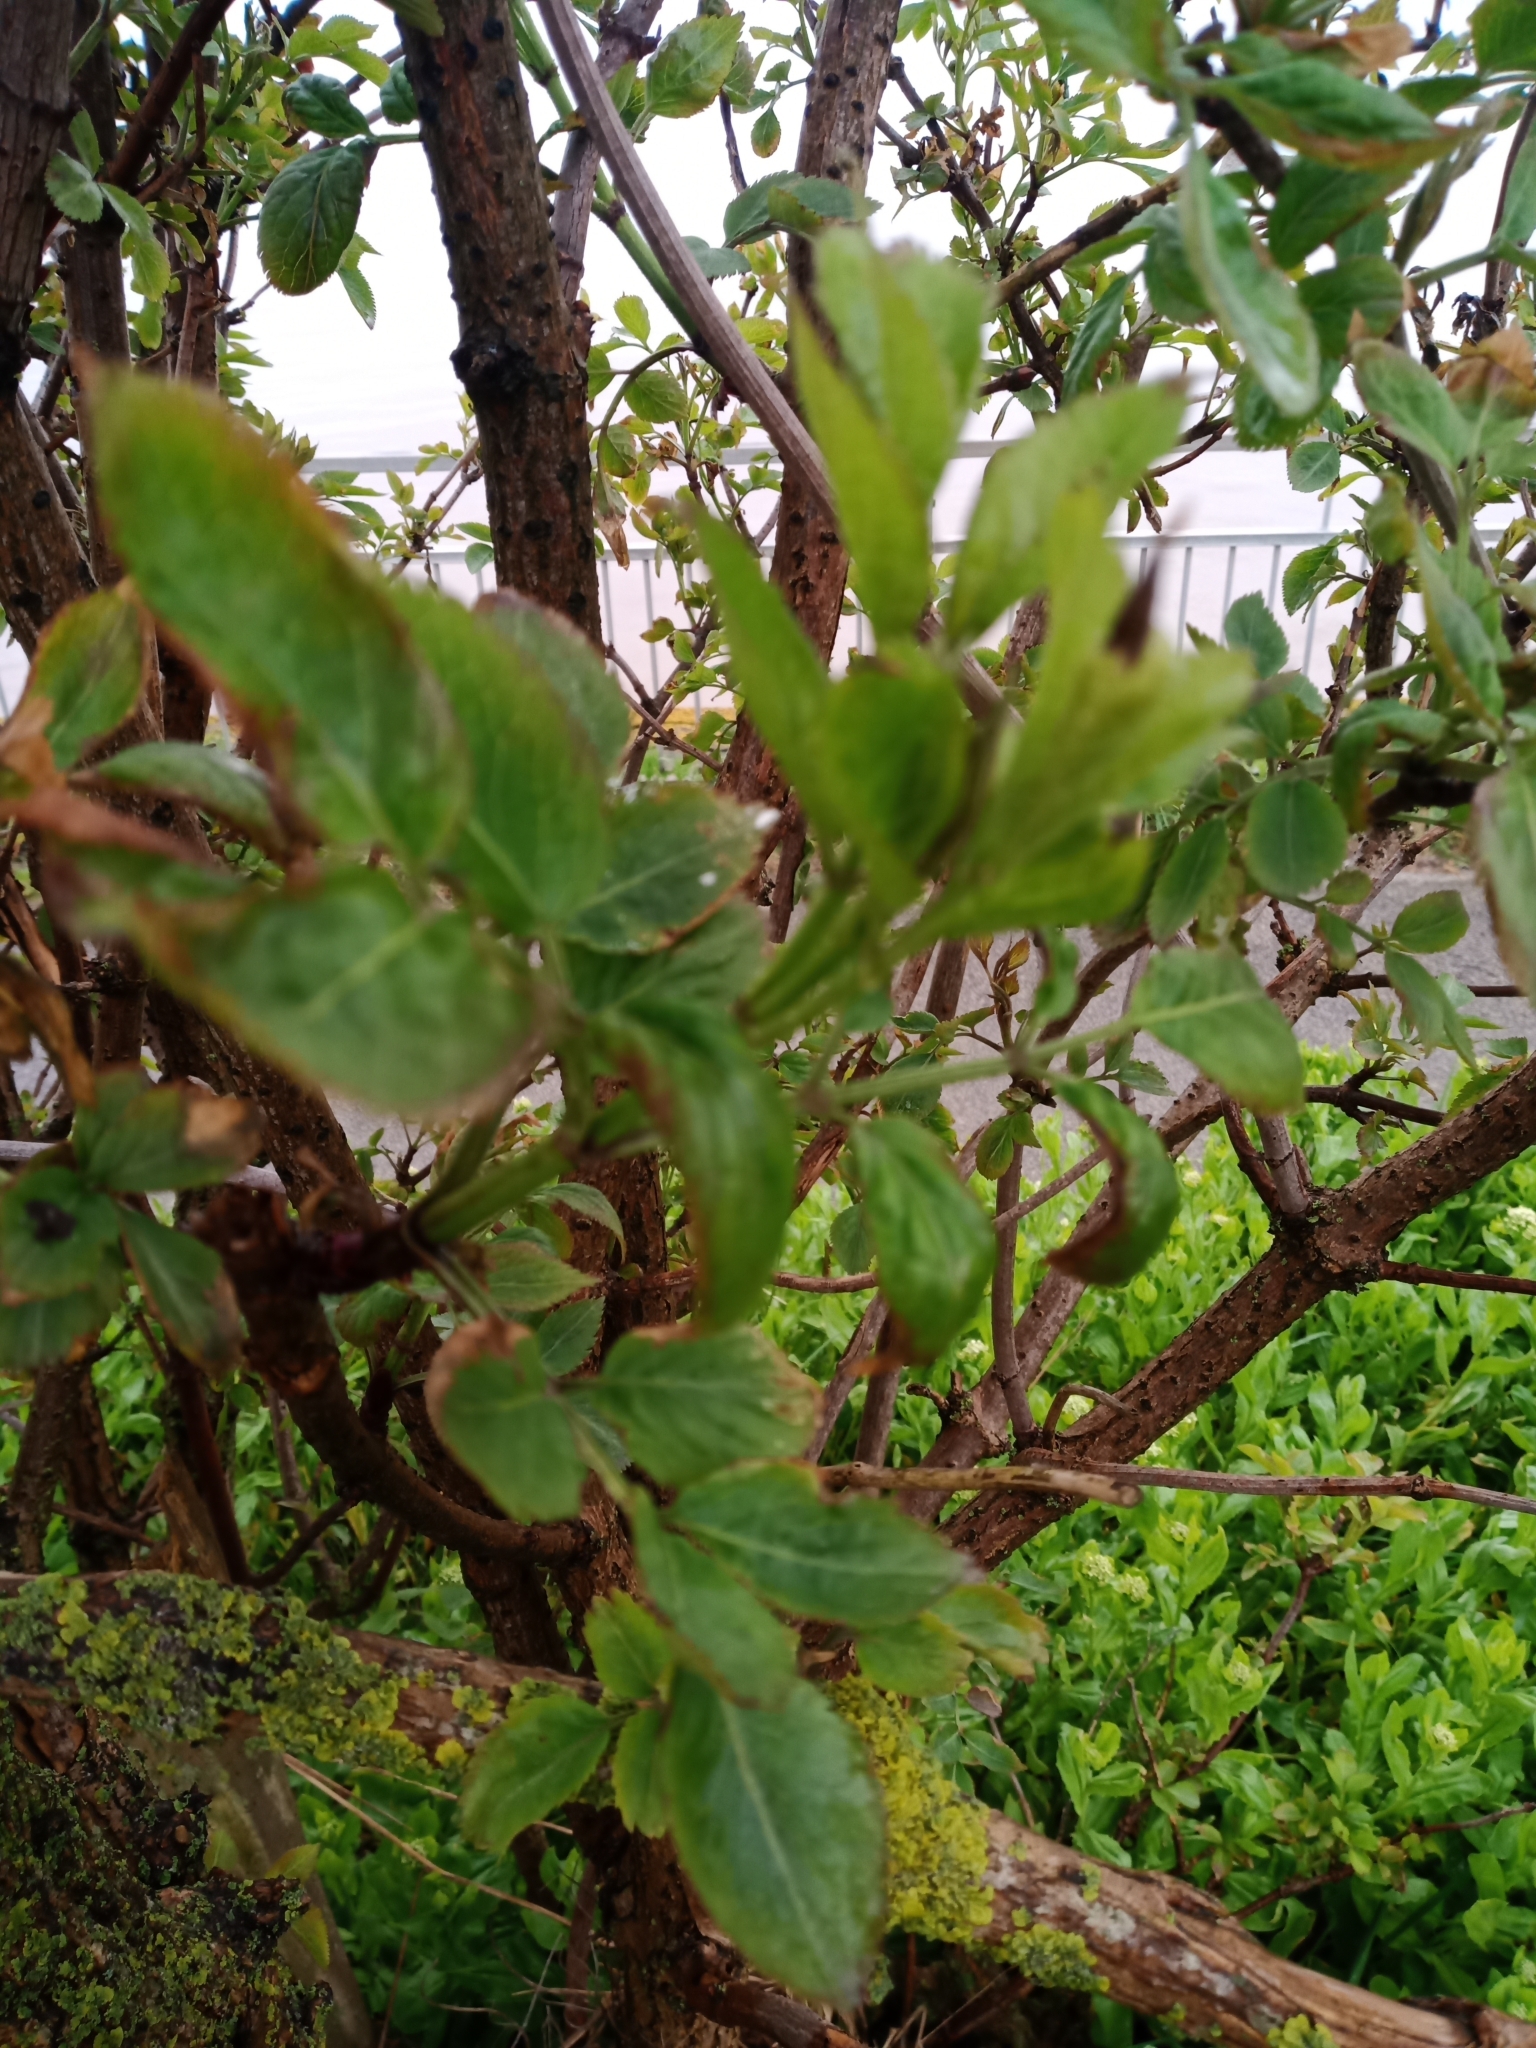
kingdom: Plantae
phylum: Tracheophyta
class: Magnoliopsida
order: Dipsacales
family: Viburnaceae
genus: Sambucus
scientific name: Sambucus nigra
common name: Elder
